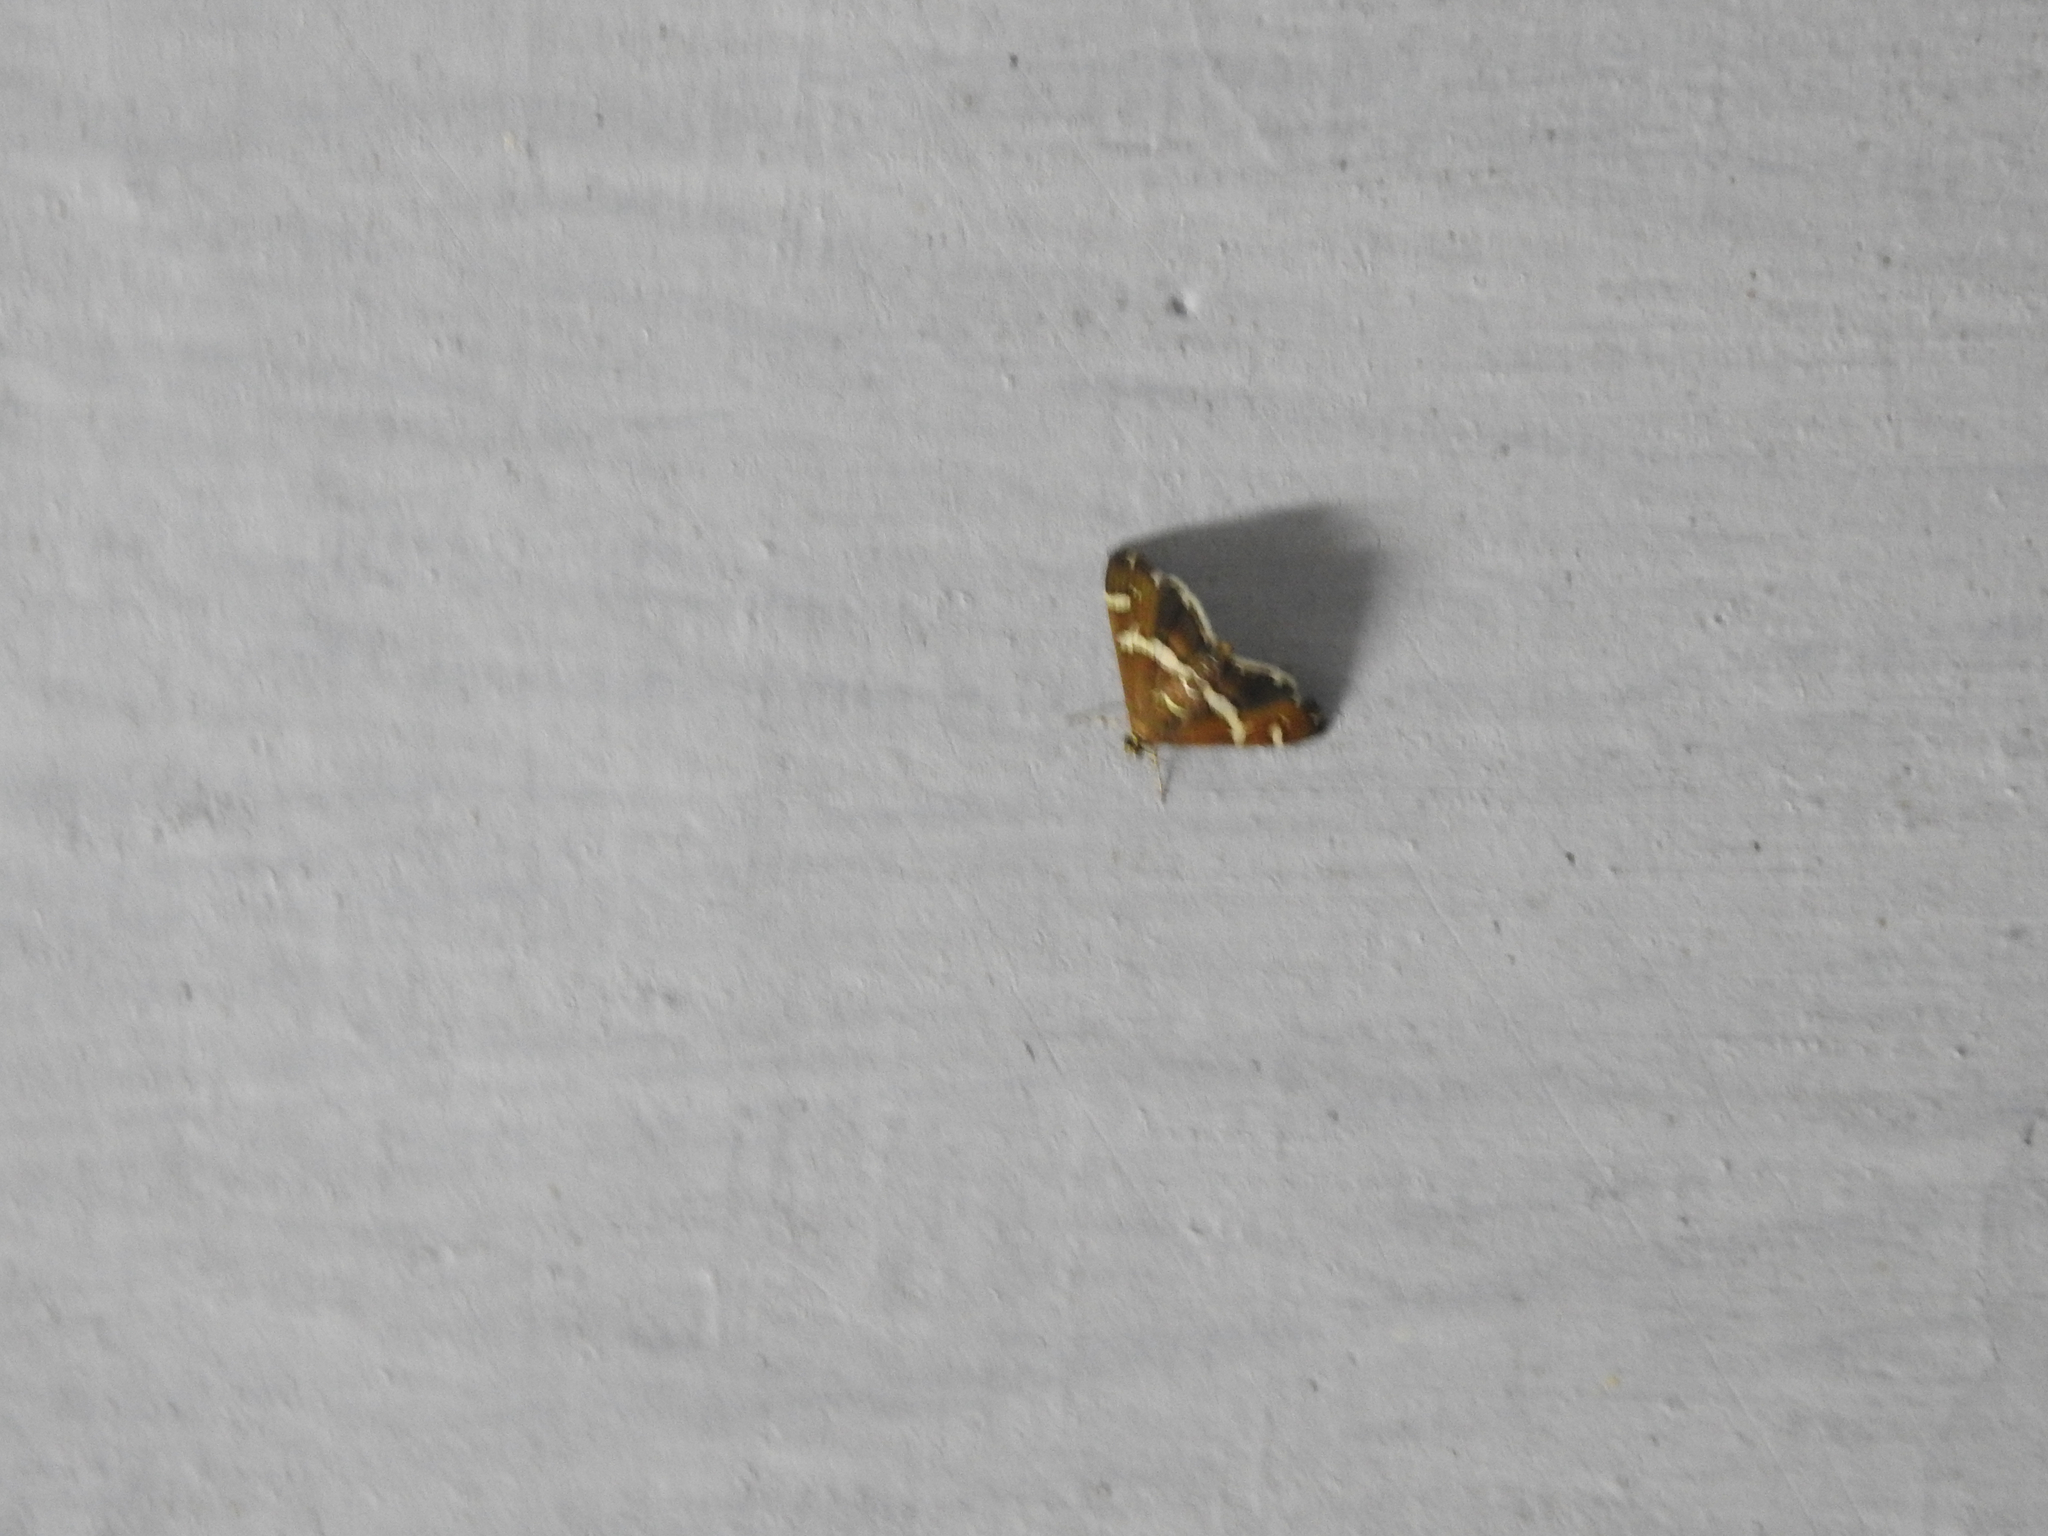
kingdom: Animalia
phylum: Arthropoda
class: Insecta
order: Lepidoptera
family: Crambidae
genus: Spoladea
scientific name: Spoladea recurvalis
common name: Beet webworm moth
